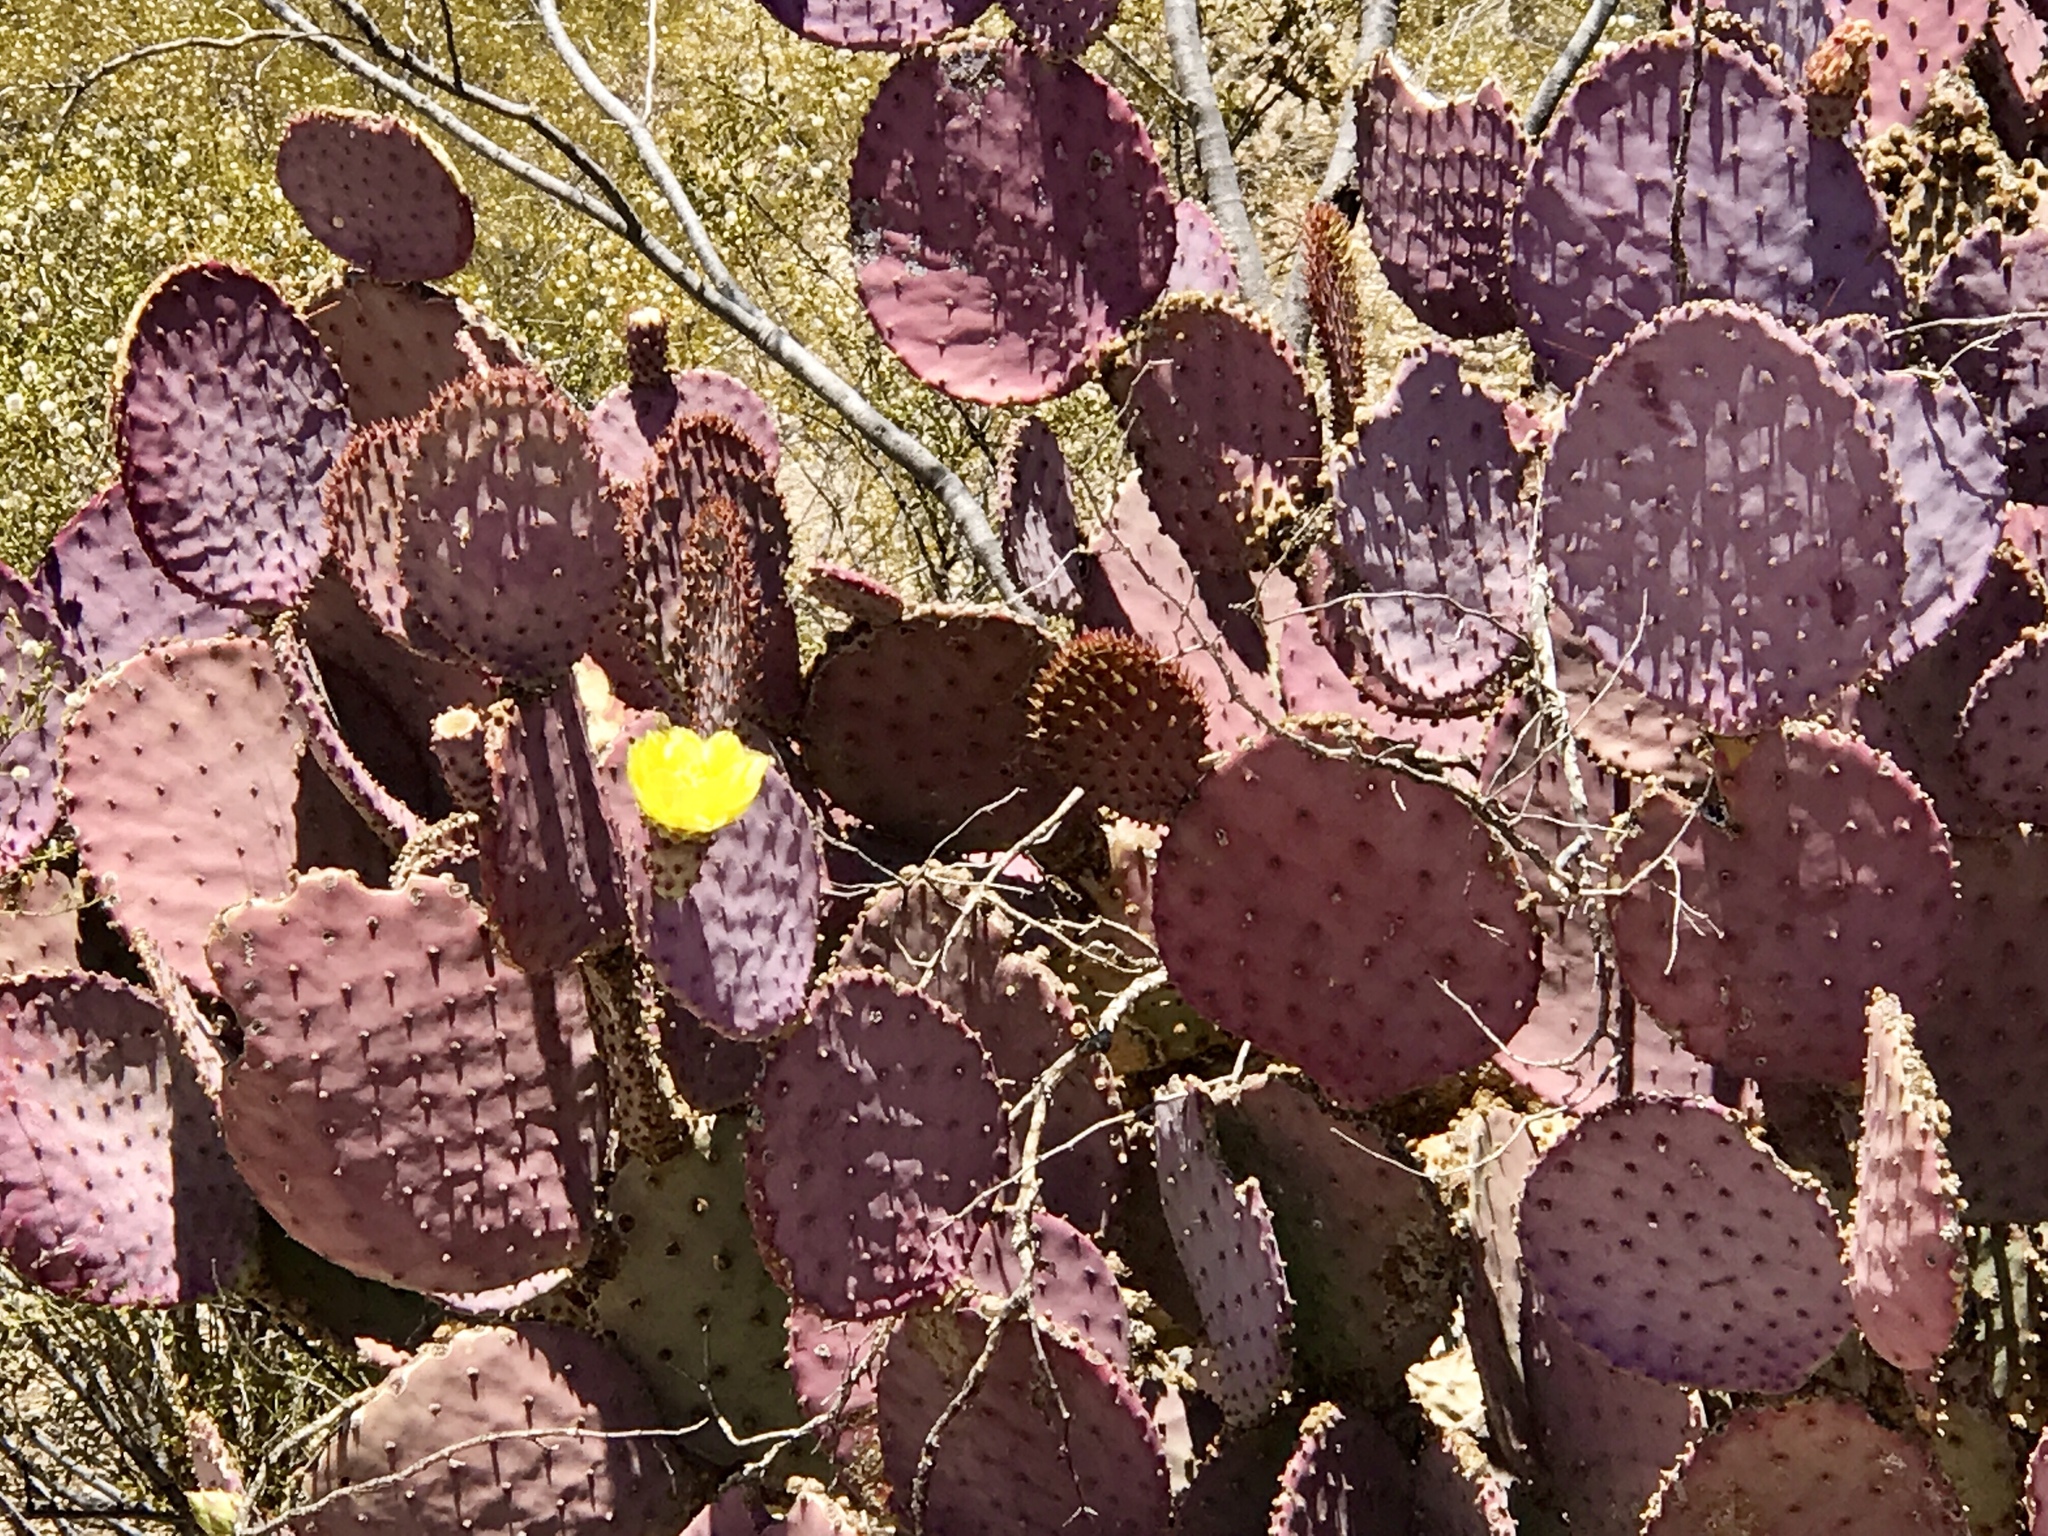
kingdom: Plantae
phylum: Tracheophyta
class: Magnoliopsida
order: Caryophyllales
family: Cactaceae
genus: Opuntia
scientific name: Opuntia gosseliniana
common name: Violet prickly-pear
